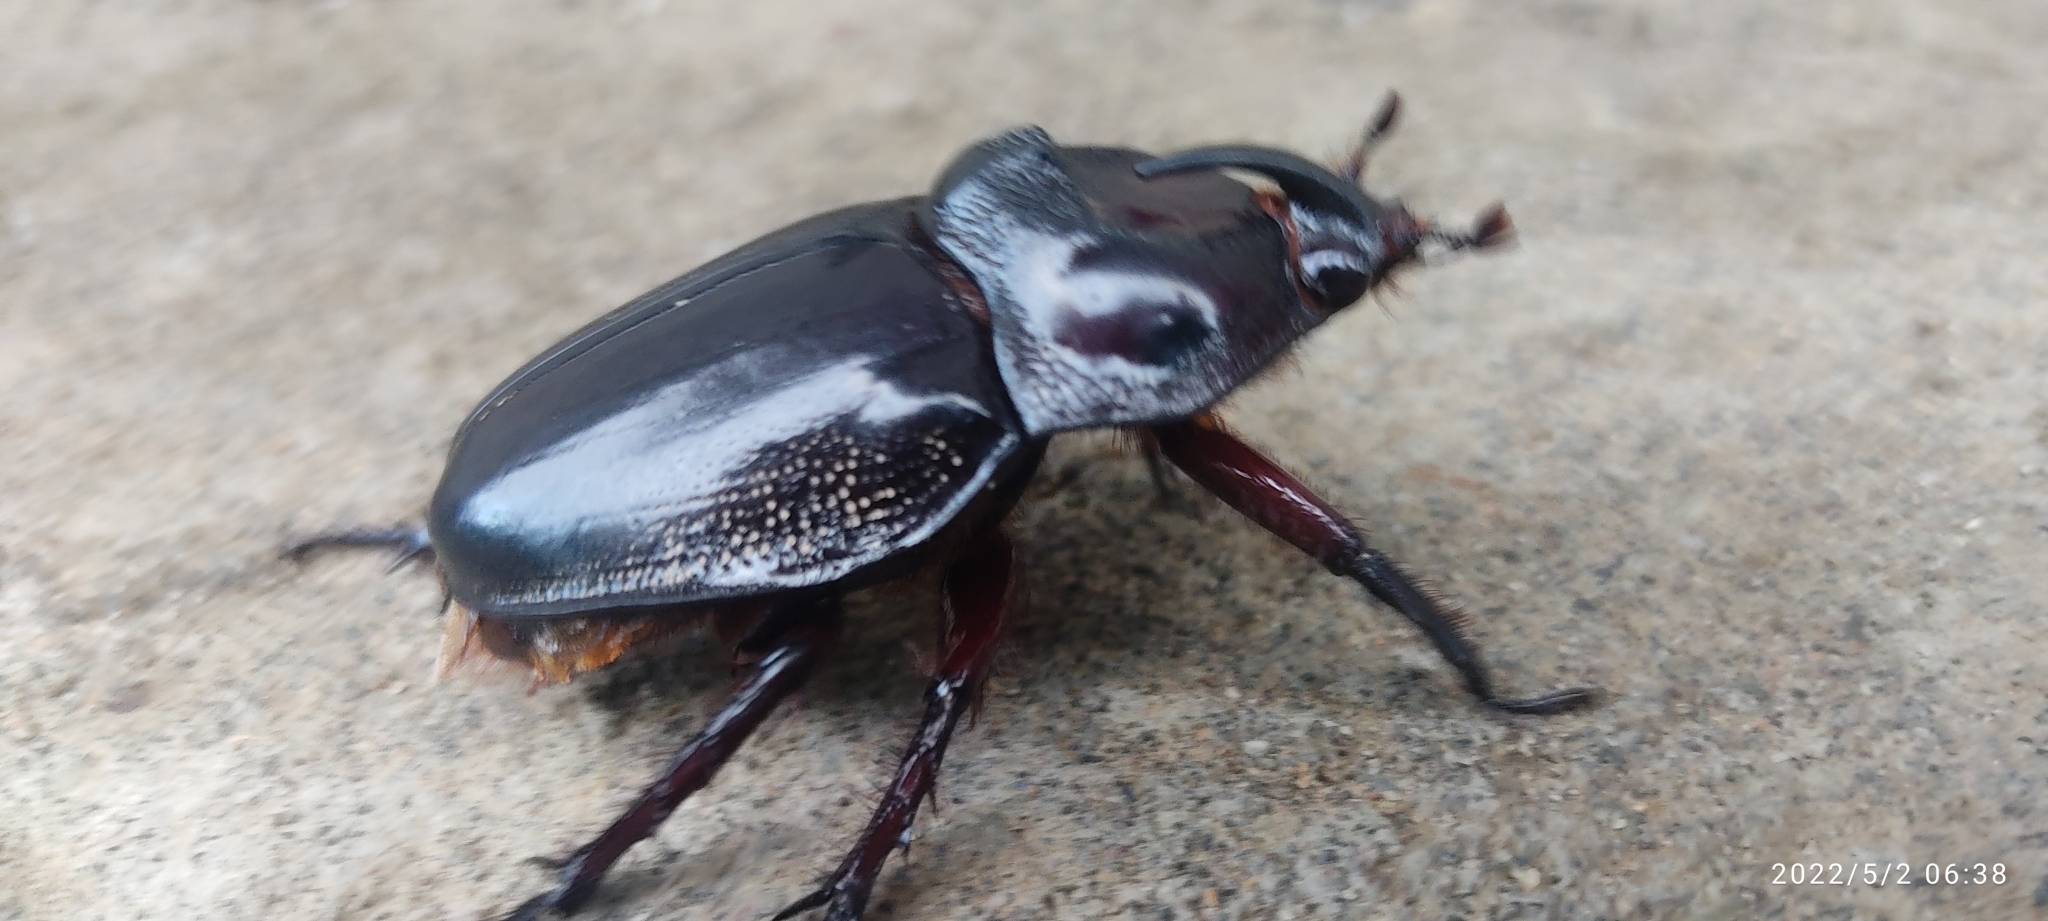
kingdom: Animalia
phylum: Arthropoda
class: Insecta
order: Coleoptera
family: Scarabaeidae
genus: Enema
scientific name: Enema pan
